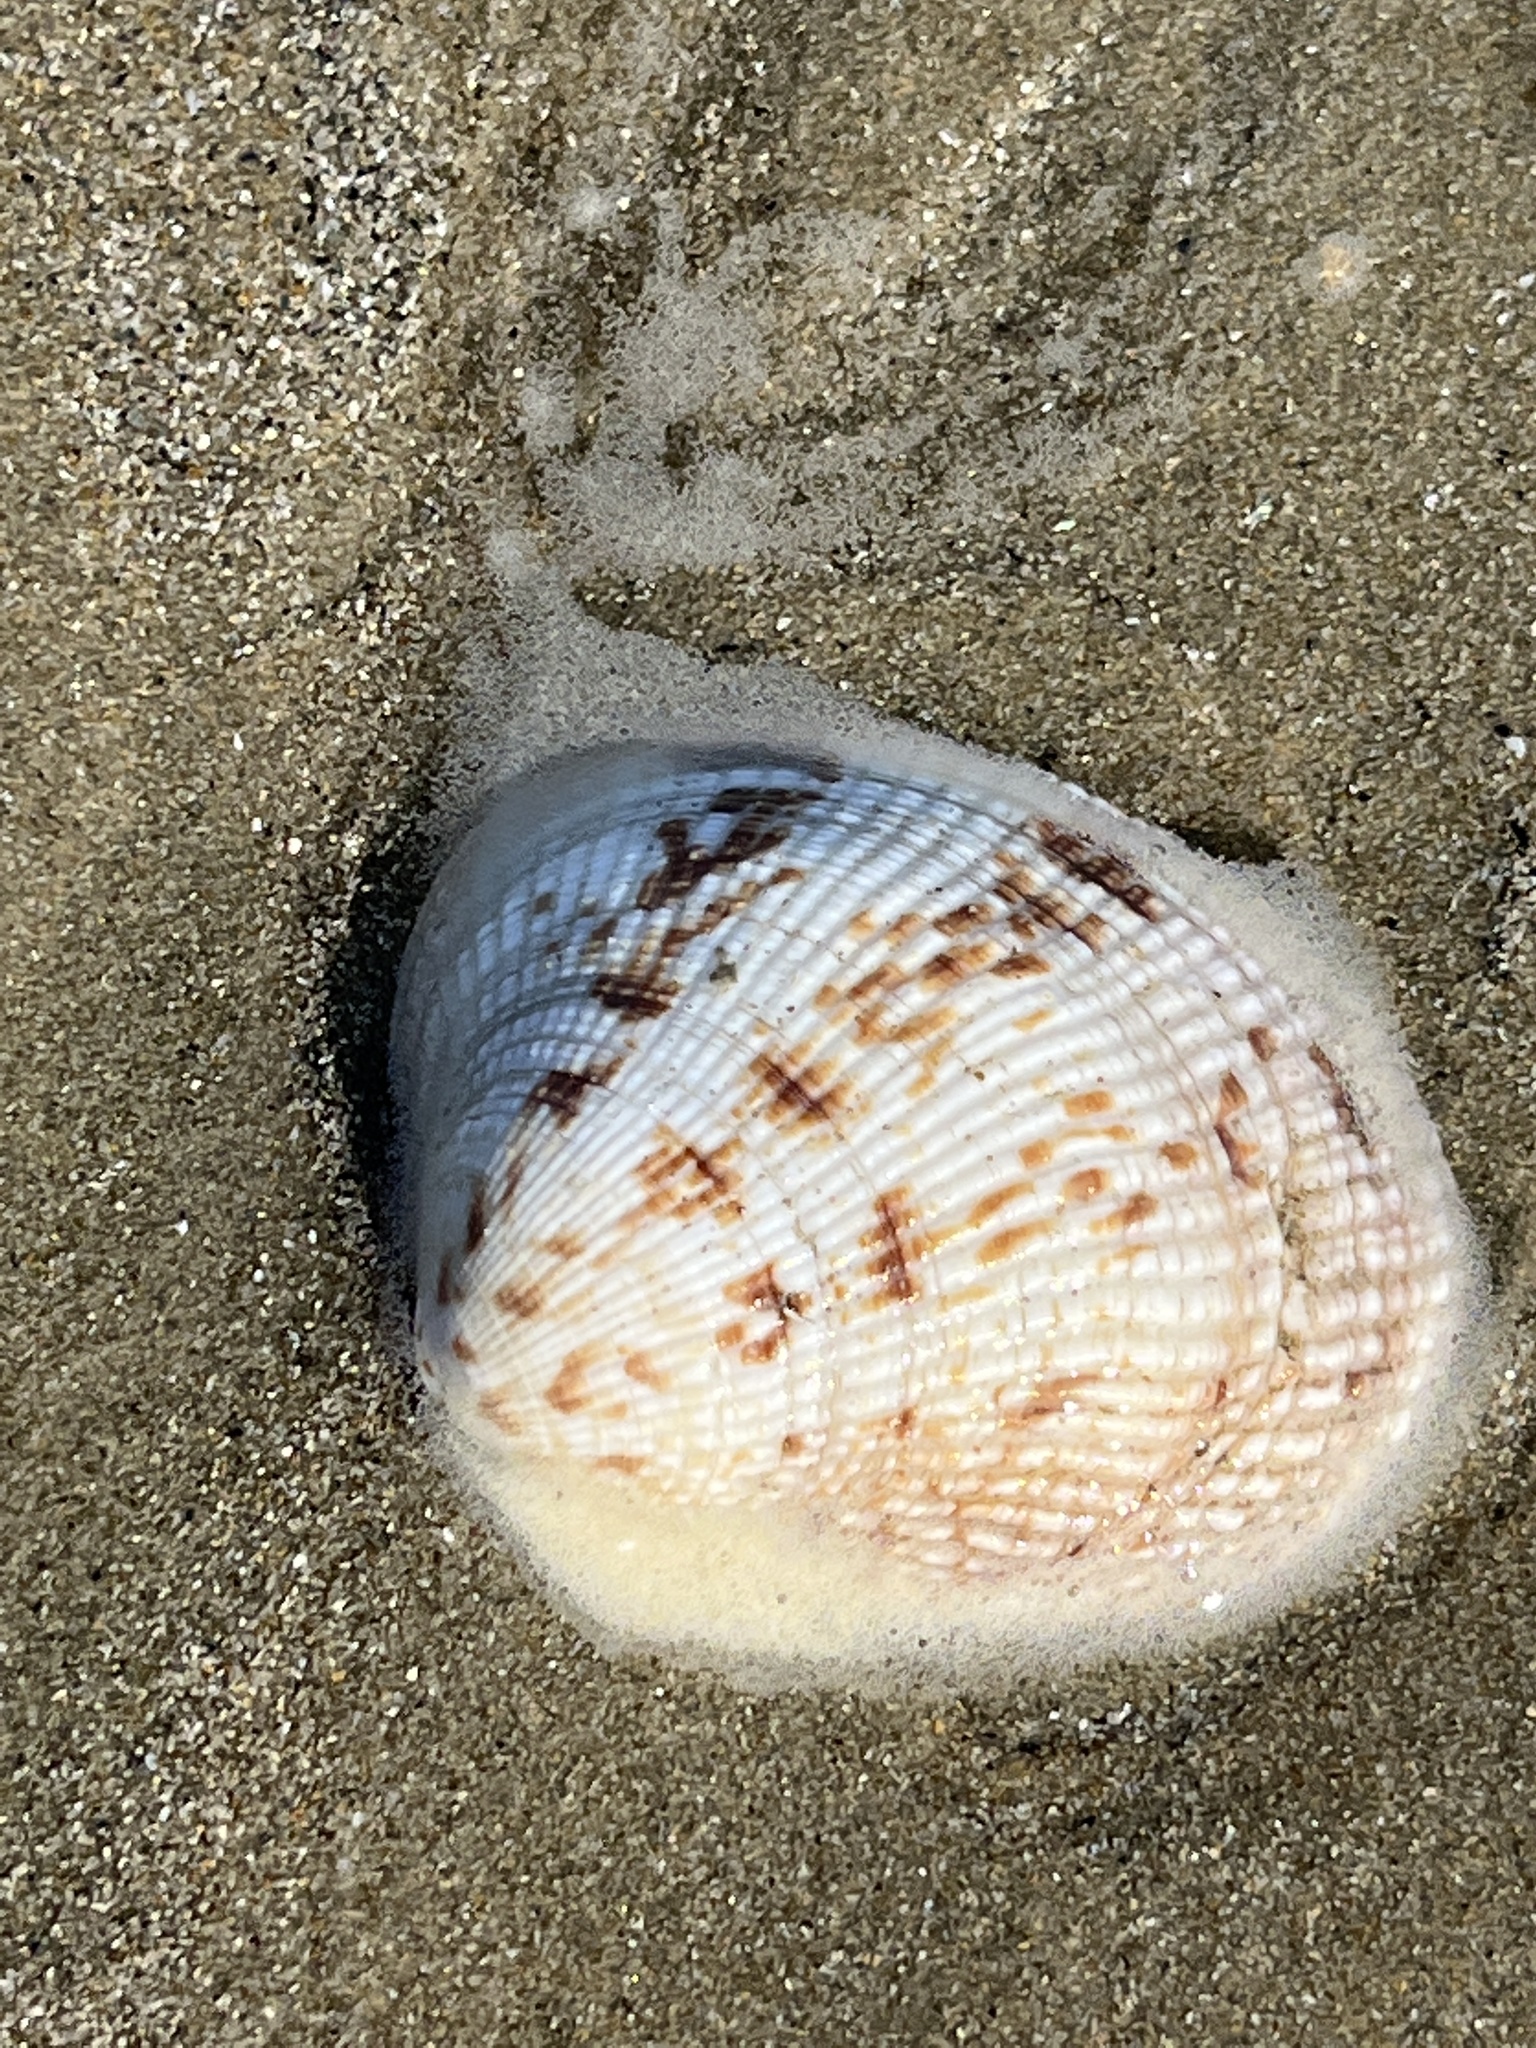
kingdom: Animalia
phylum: Mollusca
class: Bivalvia
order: Venerida
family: Veneridae
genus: Leukoma
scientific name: Leukoma jedoensis
